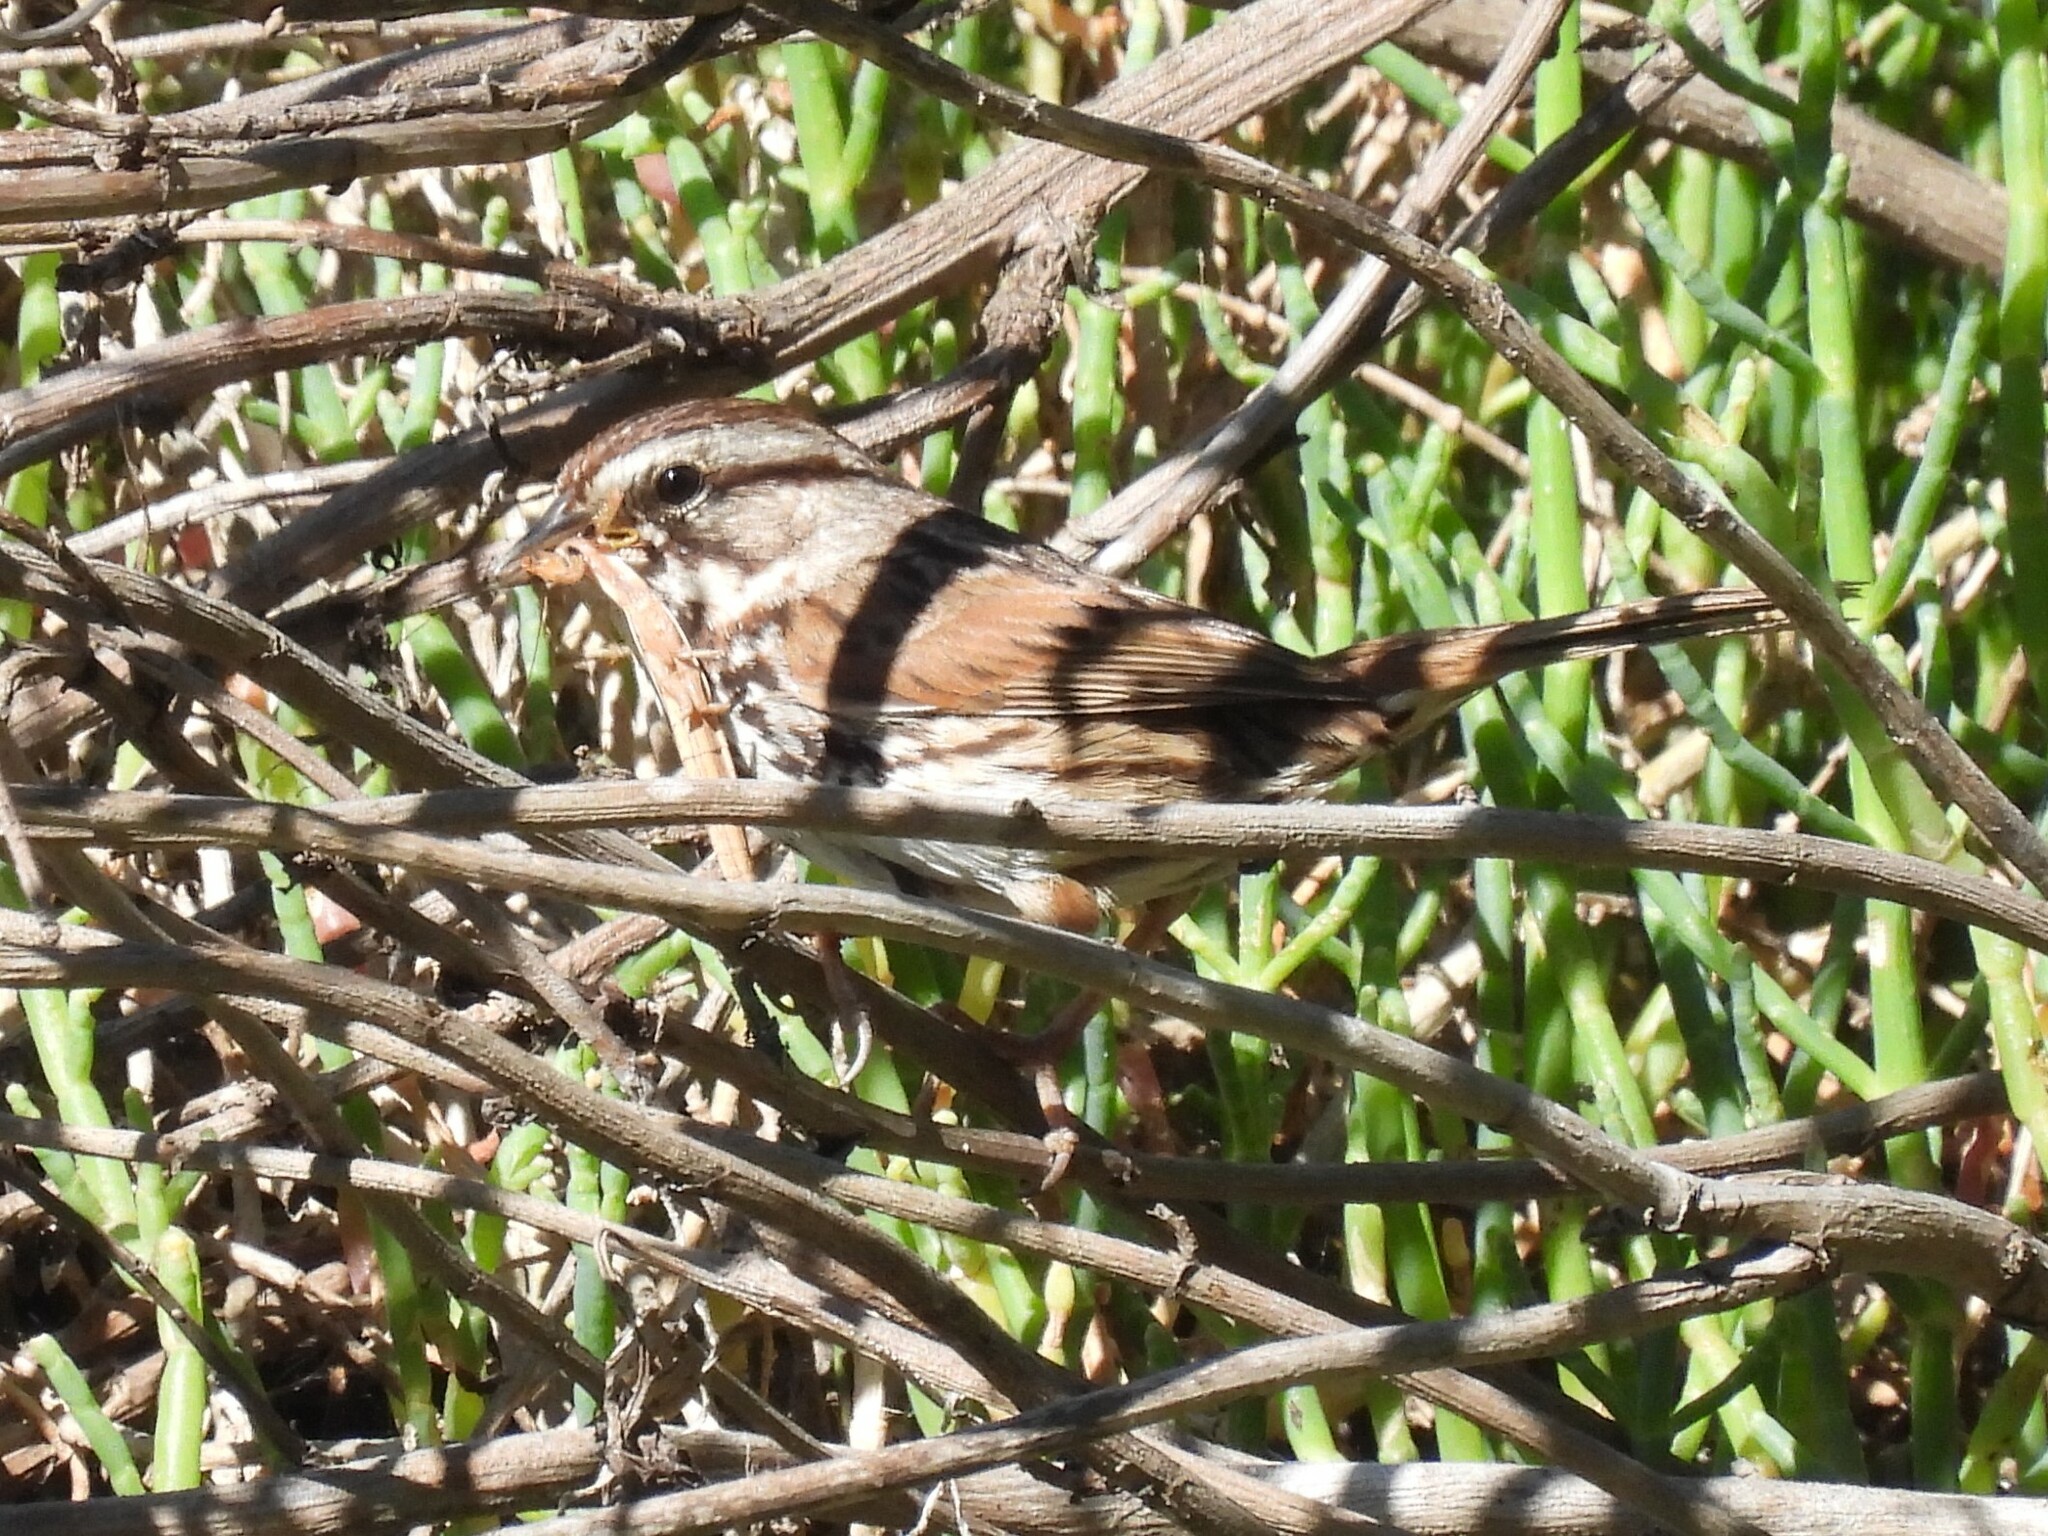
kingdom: Animalia
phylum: Chordata
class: Aves
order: Passeriformes
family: Passerellidae
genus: Melospiza
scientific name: Melospiza melodia
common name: Song sparrow
